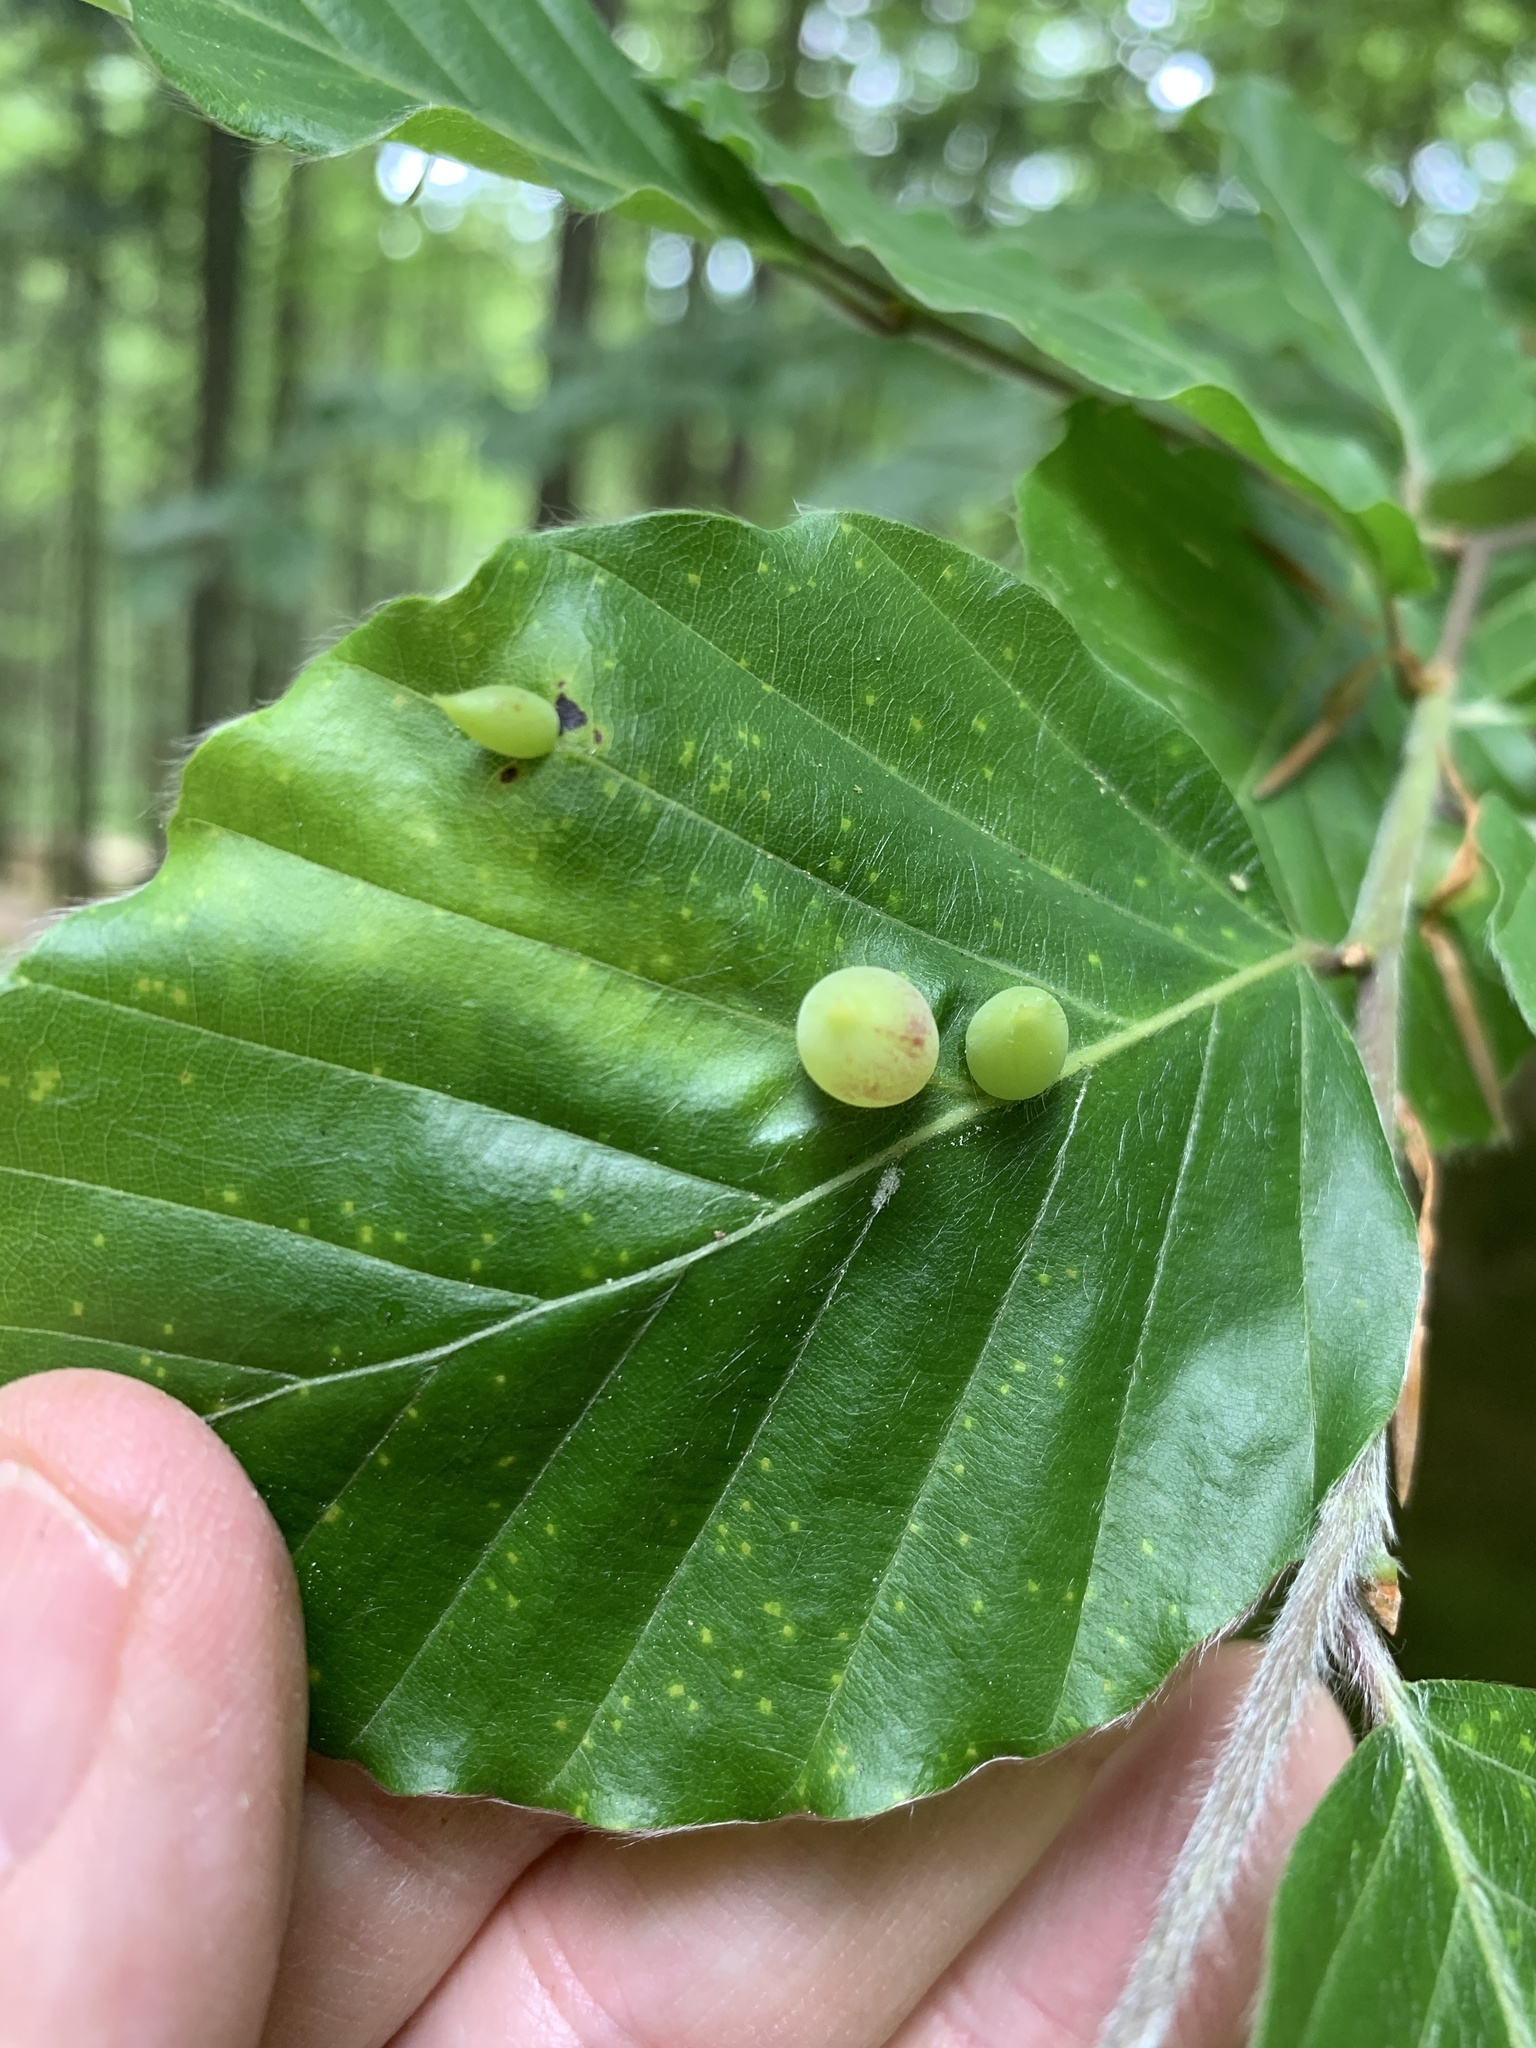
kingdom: Animalia
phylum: Arthropoda
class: Insecta
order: Diptera
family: Cecidomyiidae
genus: Mikiola
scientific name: Mikiola fagi
